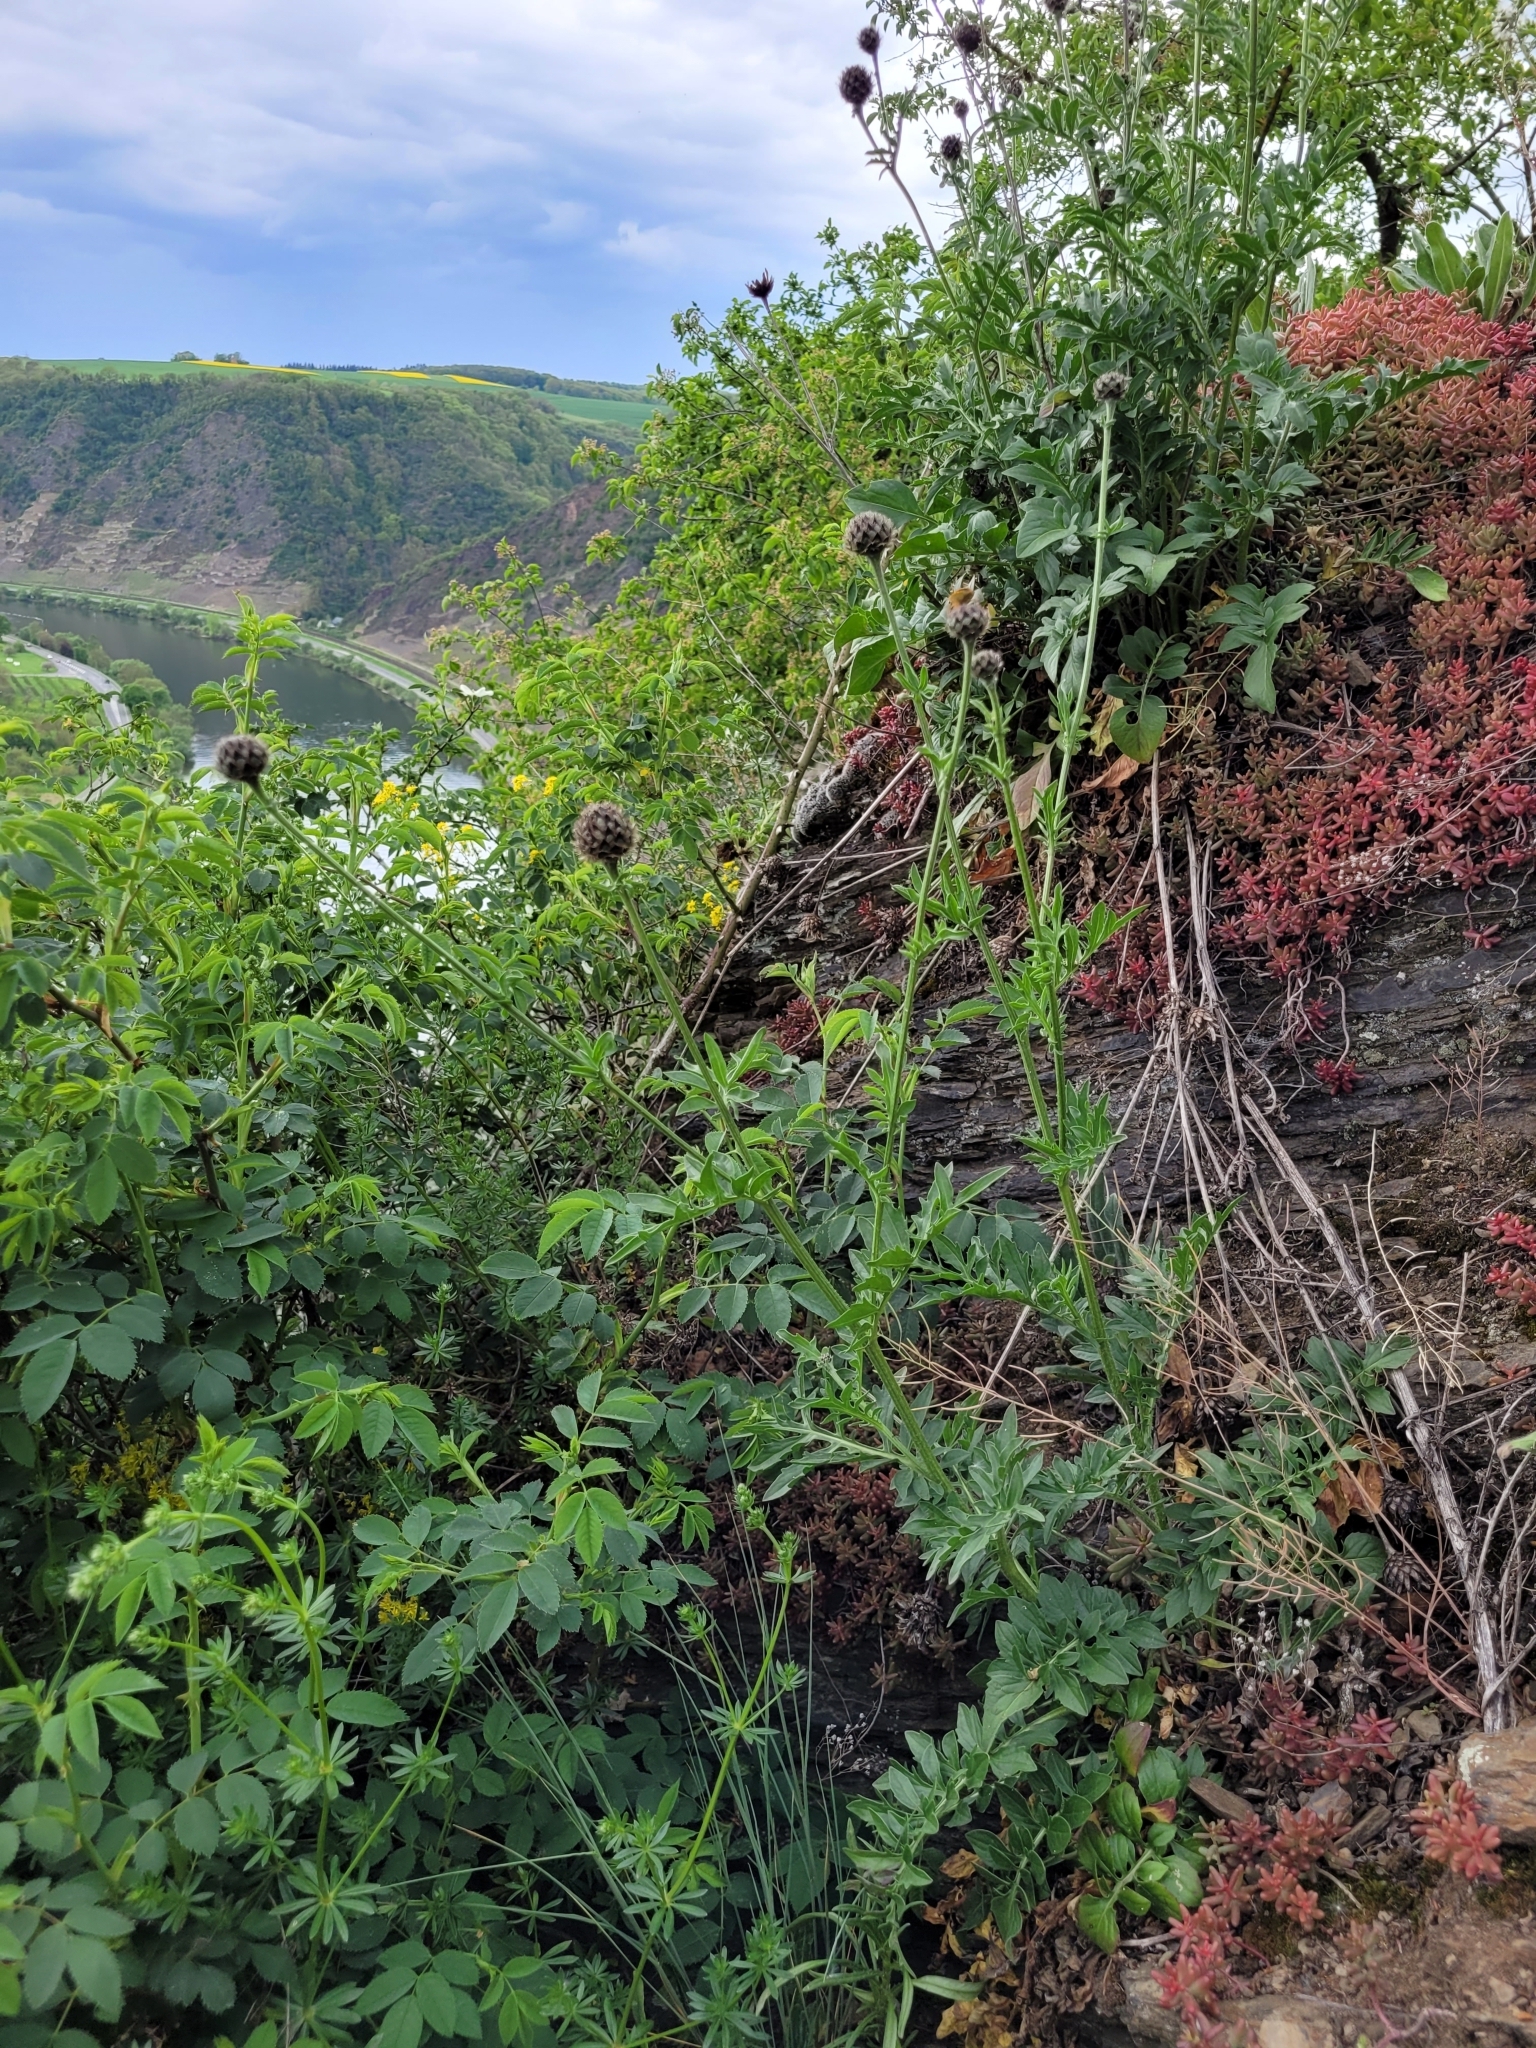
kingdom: Plantae
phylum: Tracheophyta
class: Magnoliopsida
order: Asterales
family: Asteraceae
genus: Centaurea
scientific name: Centaurea scabiosa
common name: Greater knapweed
